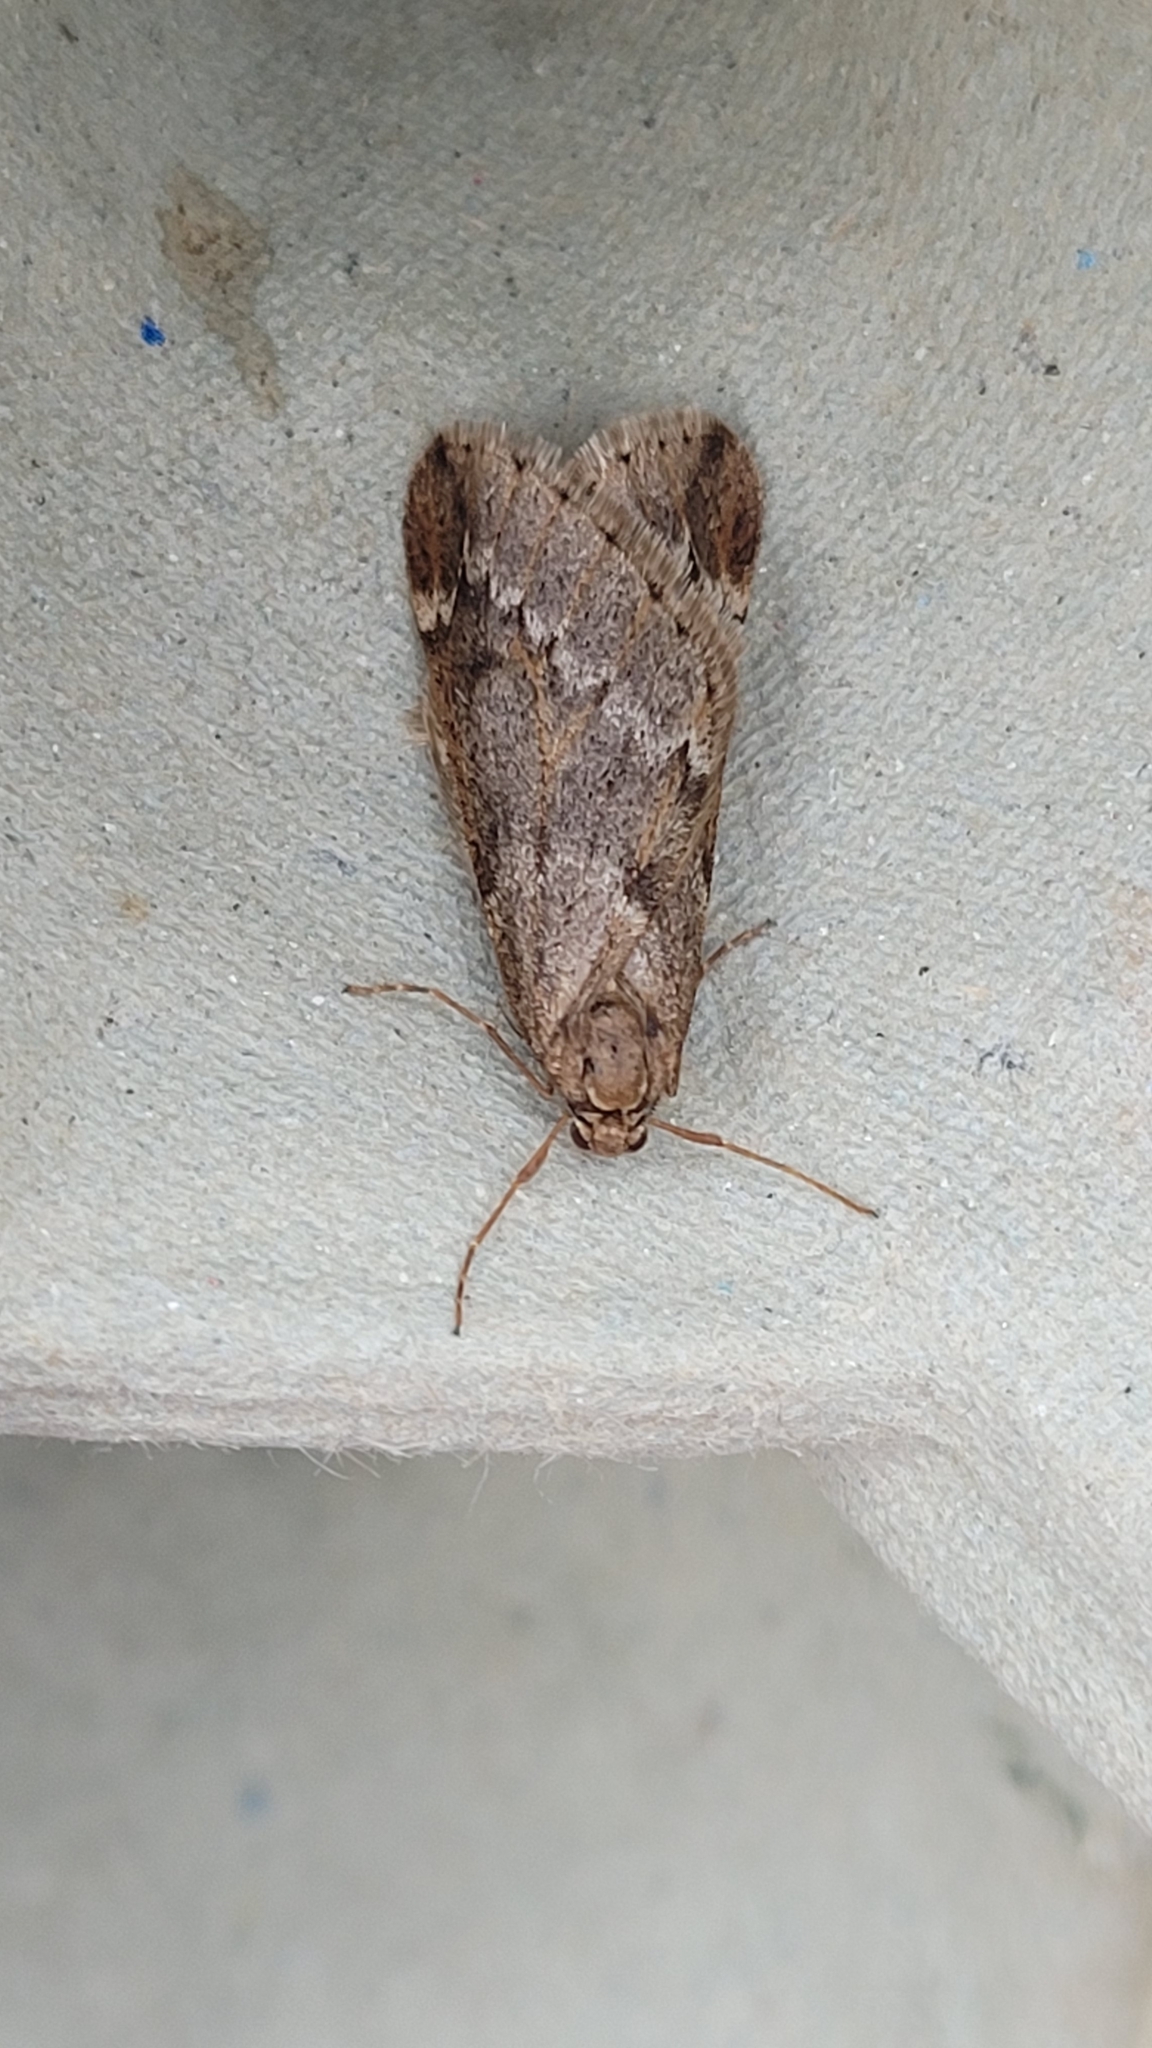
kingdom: Animalia
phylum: Arthropoda
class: Insecta
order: Lepidoptera
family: Geometridae
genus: Alsophila
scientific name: Alsophila aescularia
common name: March moth
